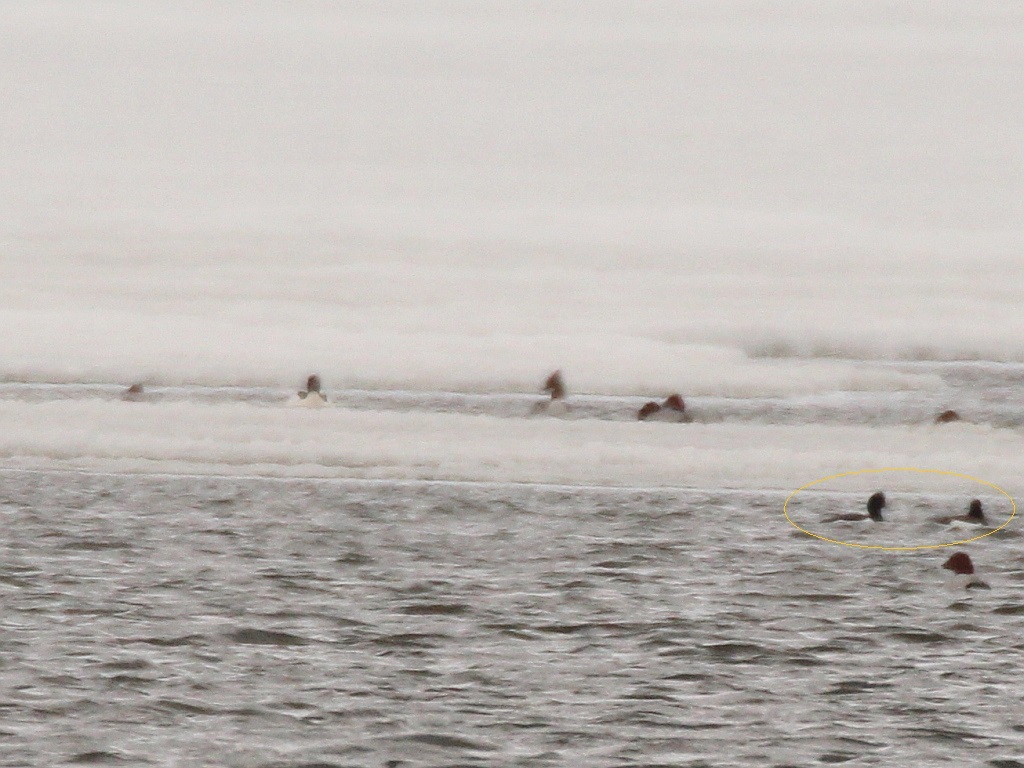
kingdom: Animalia
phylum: Chordata
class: Aves
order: Anseriformes
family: Anatidae
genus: Aythya
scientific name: Aythya fuligula
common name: Tufted duck
